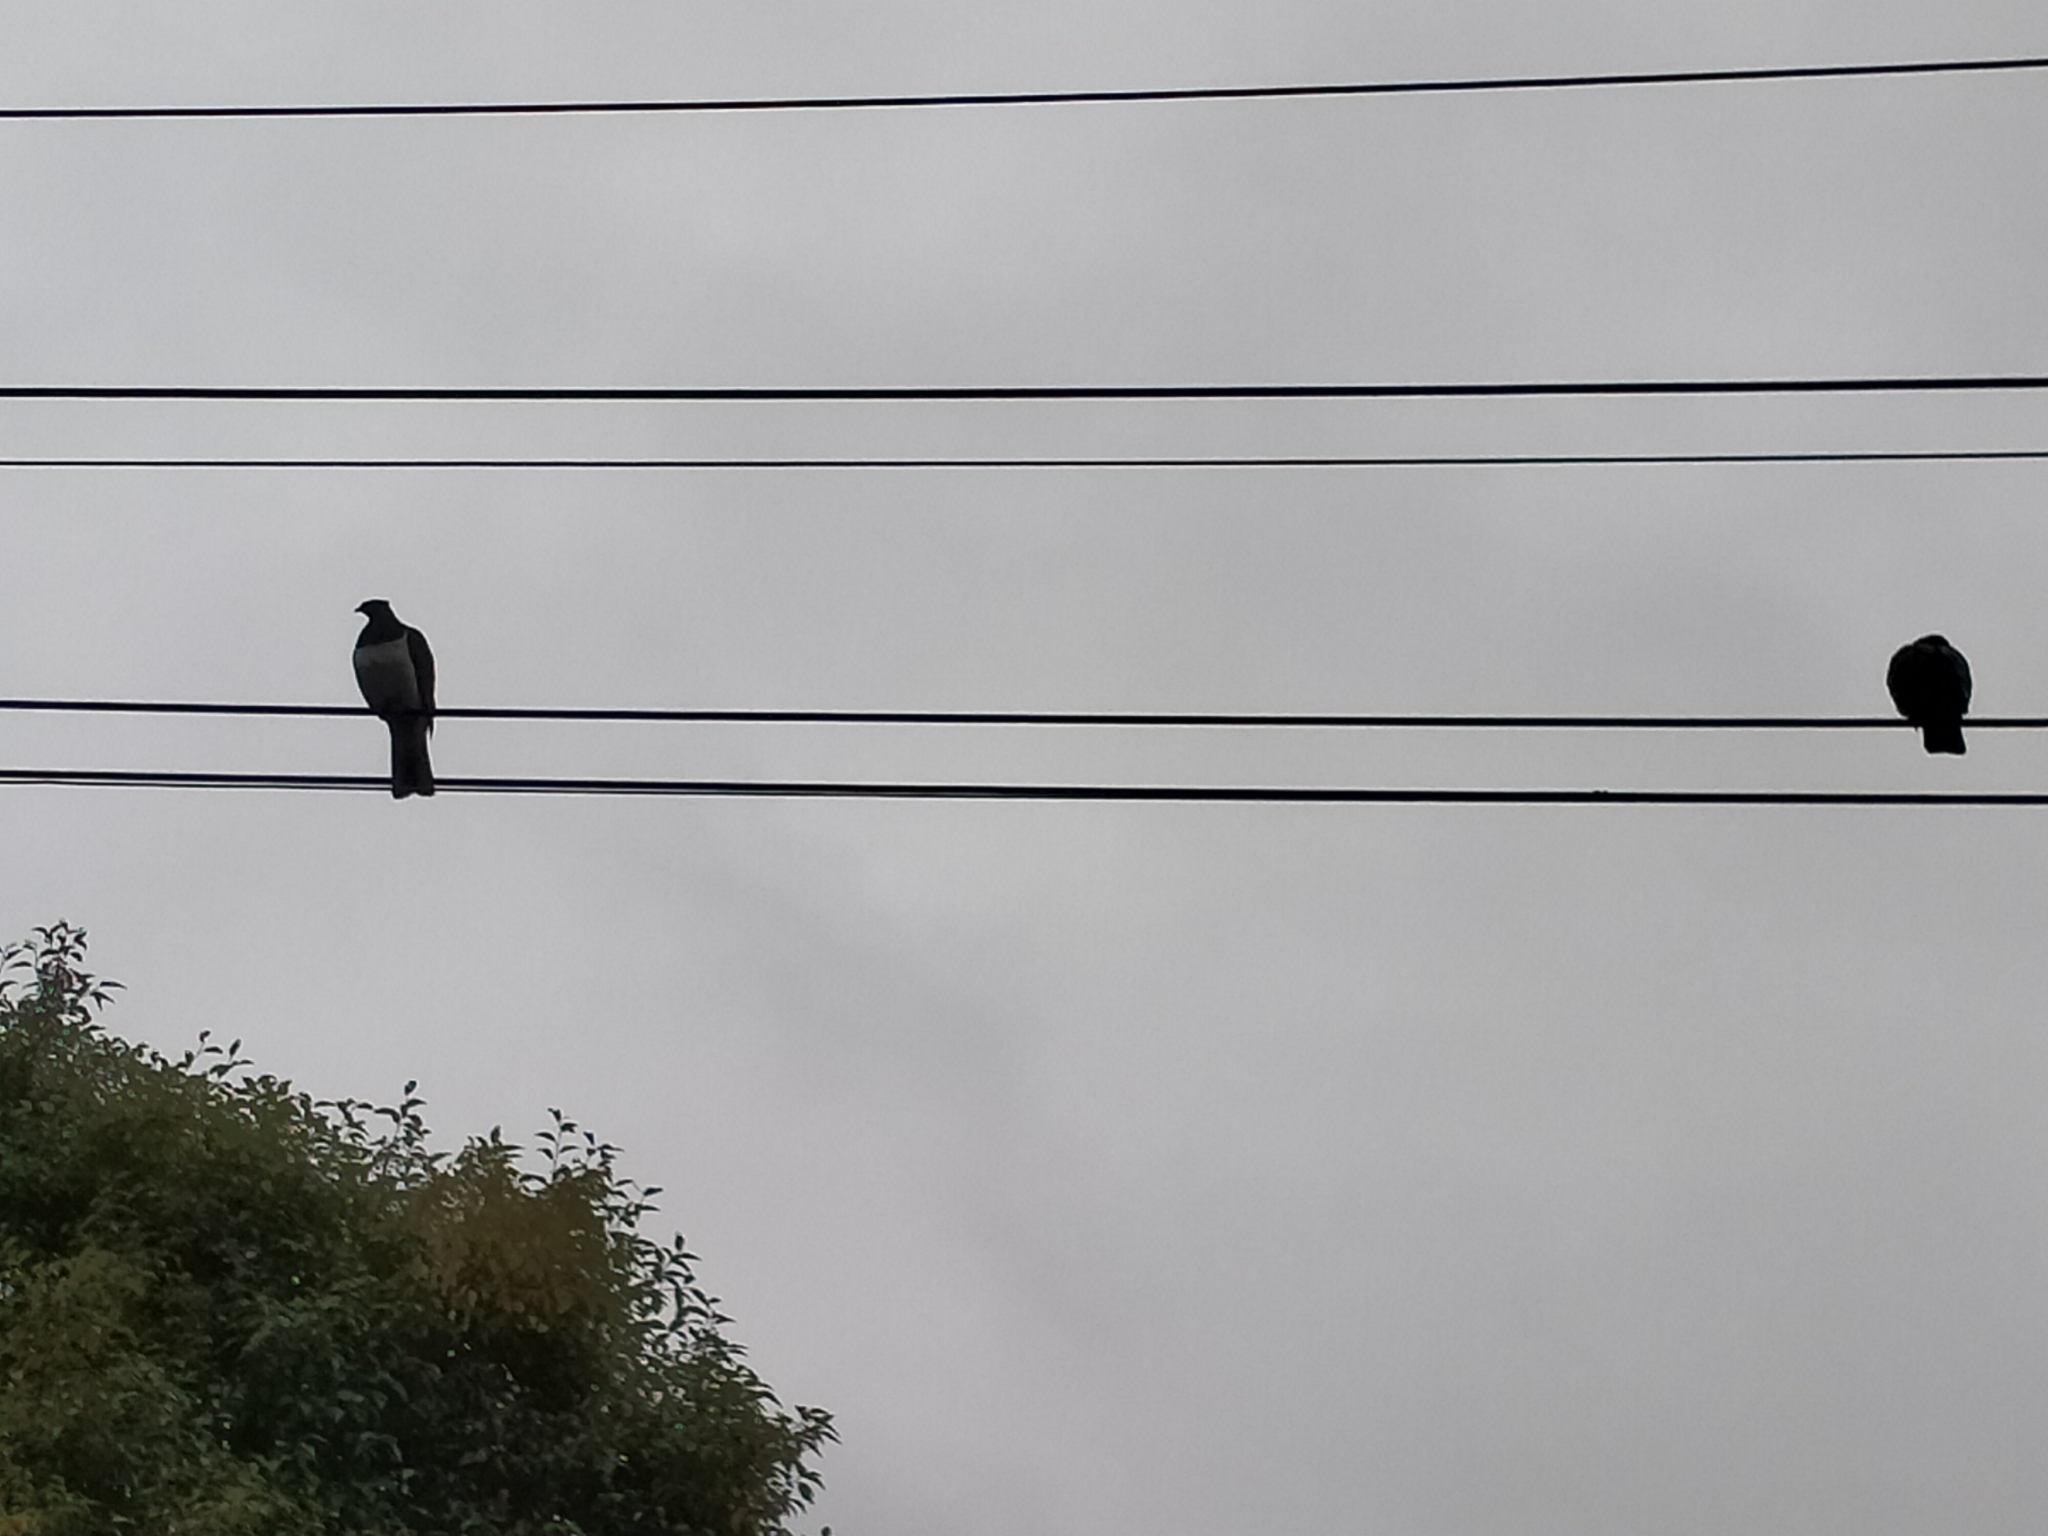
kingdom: Animalia
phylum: Chordata
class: Aves
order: Columbiformes
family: Columbidae
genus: Hemiphaga
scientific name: Hemiphaga novaeseelandiae
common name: New zealand pigeon
